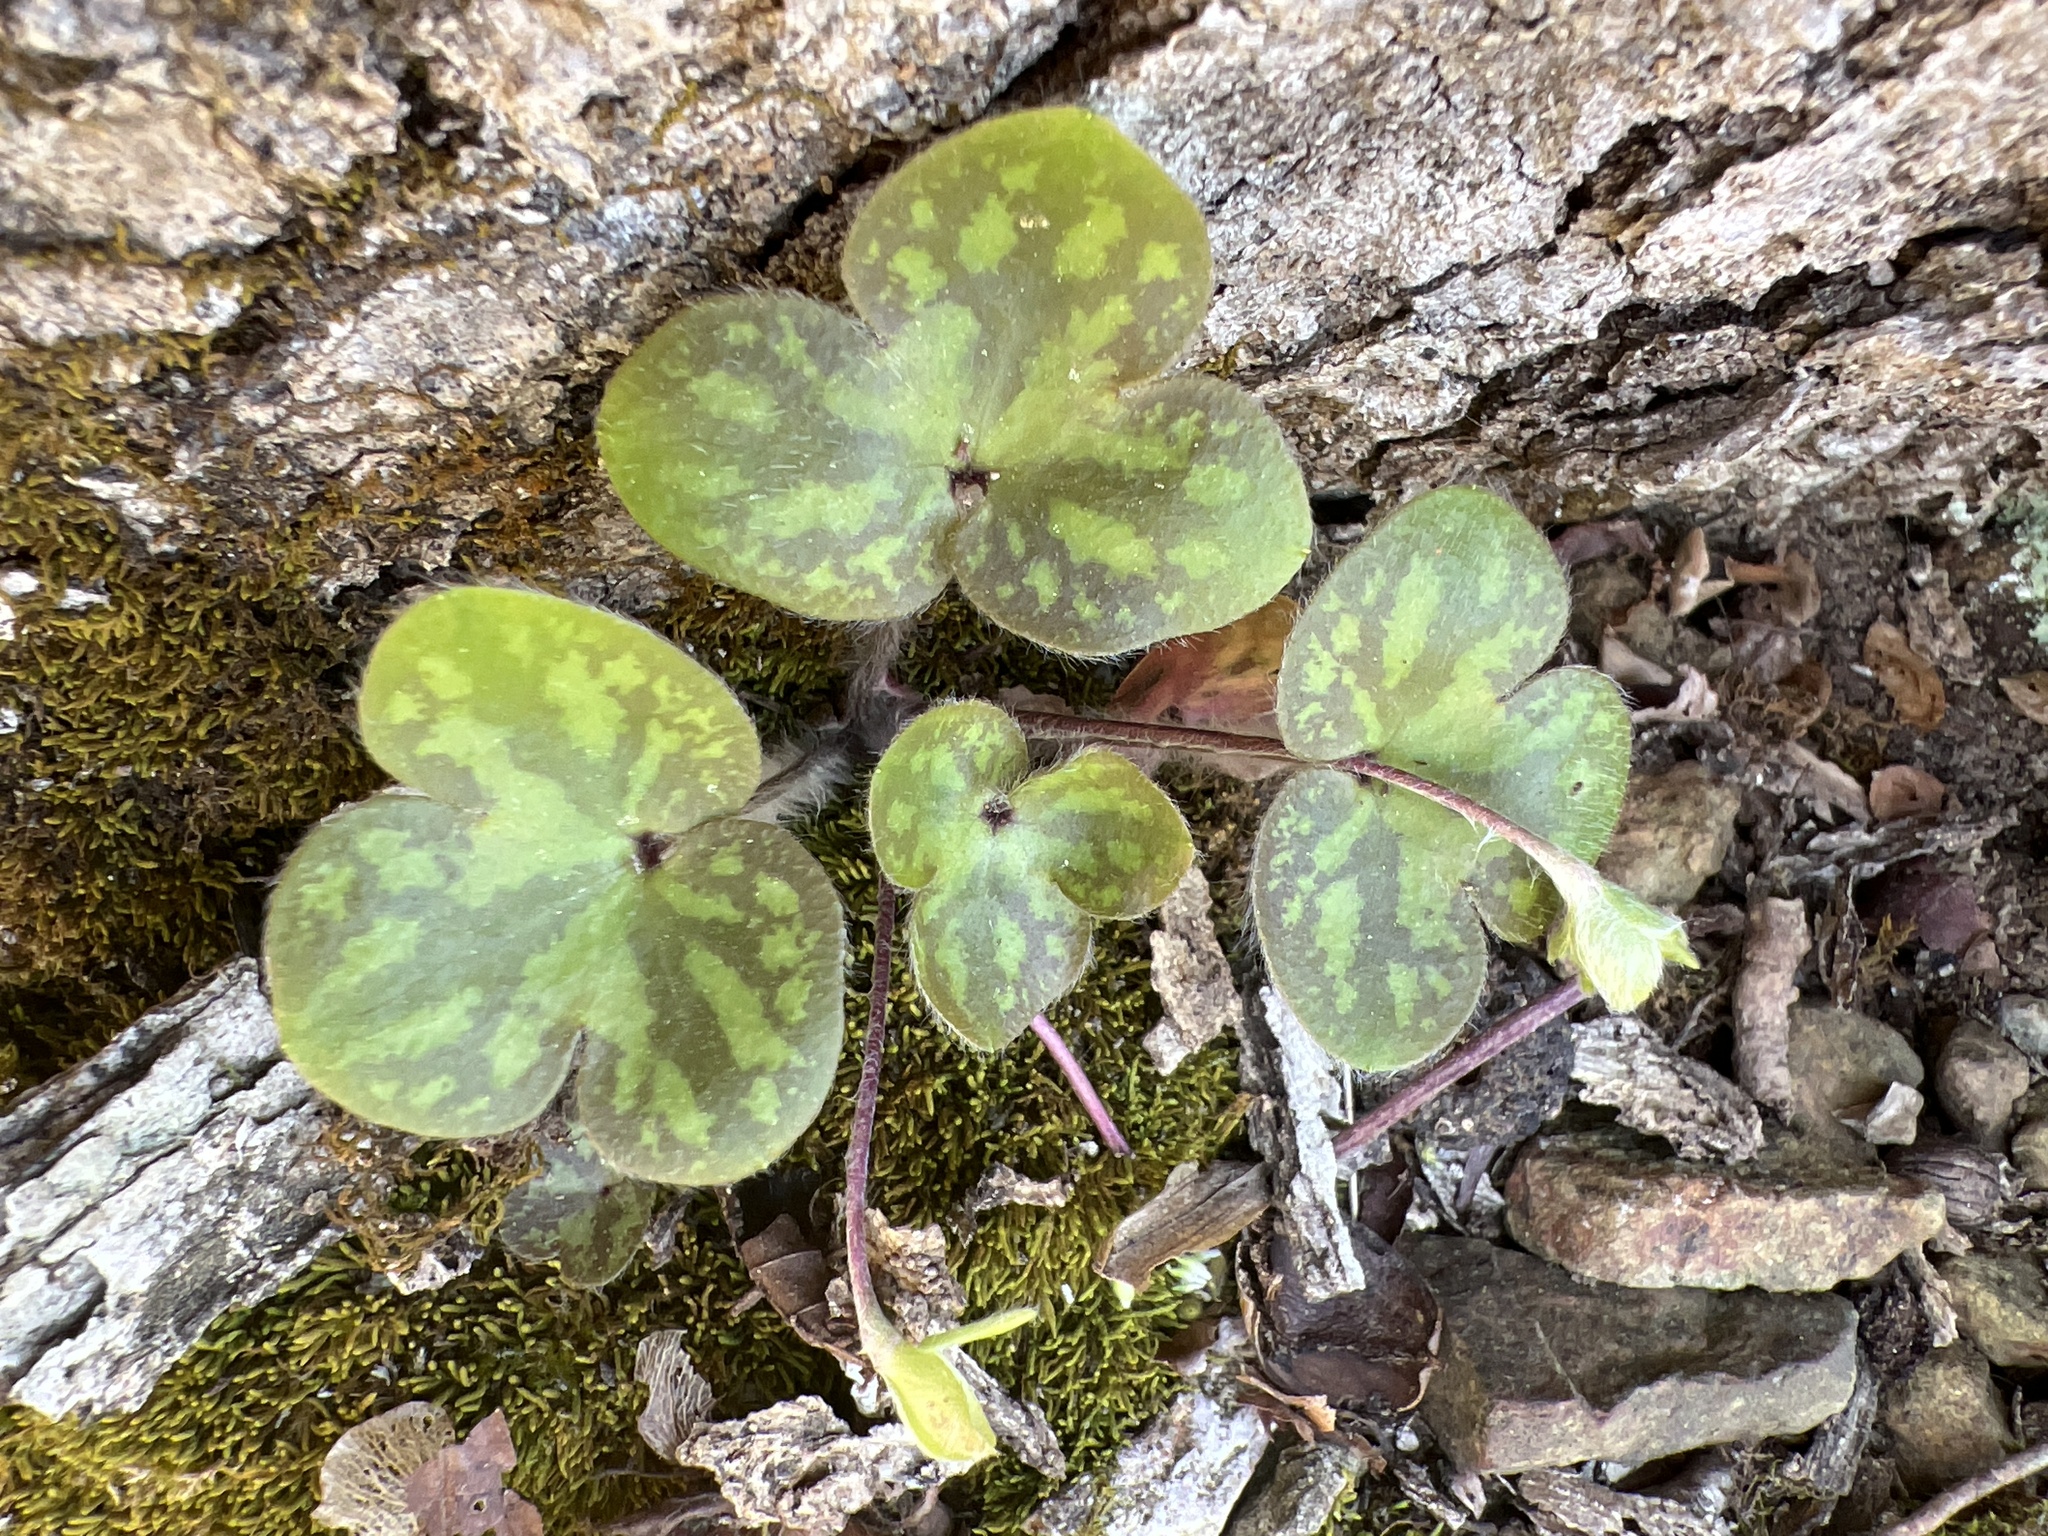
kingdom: Plantae
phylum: Tracheophyta
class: Magnoliopsida
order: Ranunculales
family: Ranunculaceae
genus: Hepatica
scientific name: Hepatica americana
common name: American hepatica
